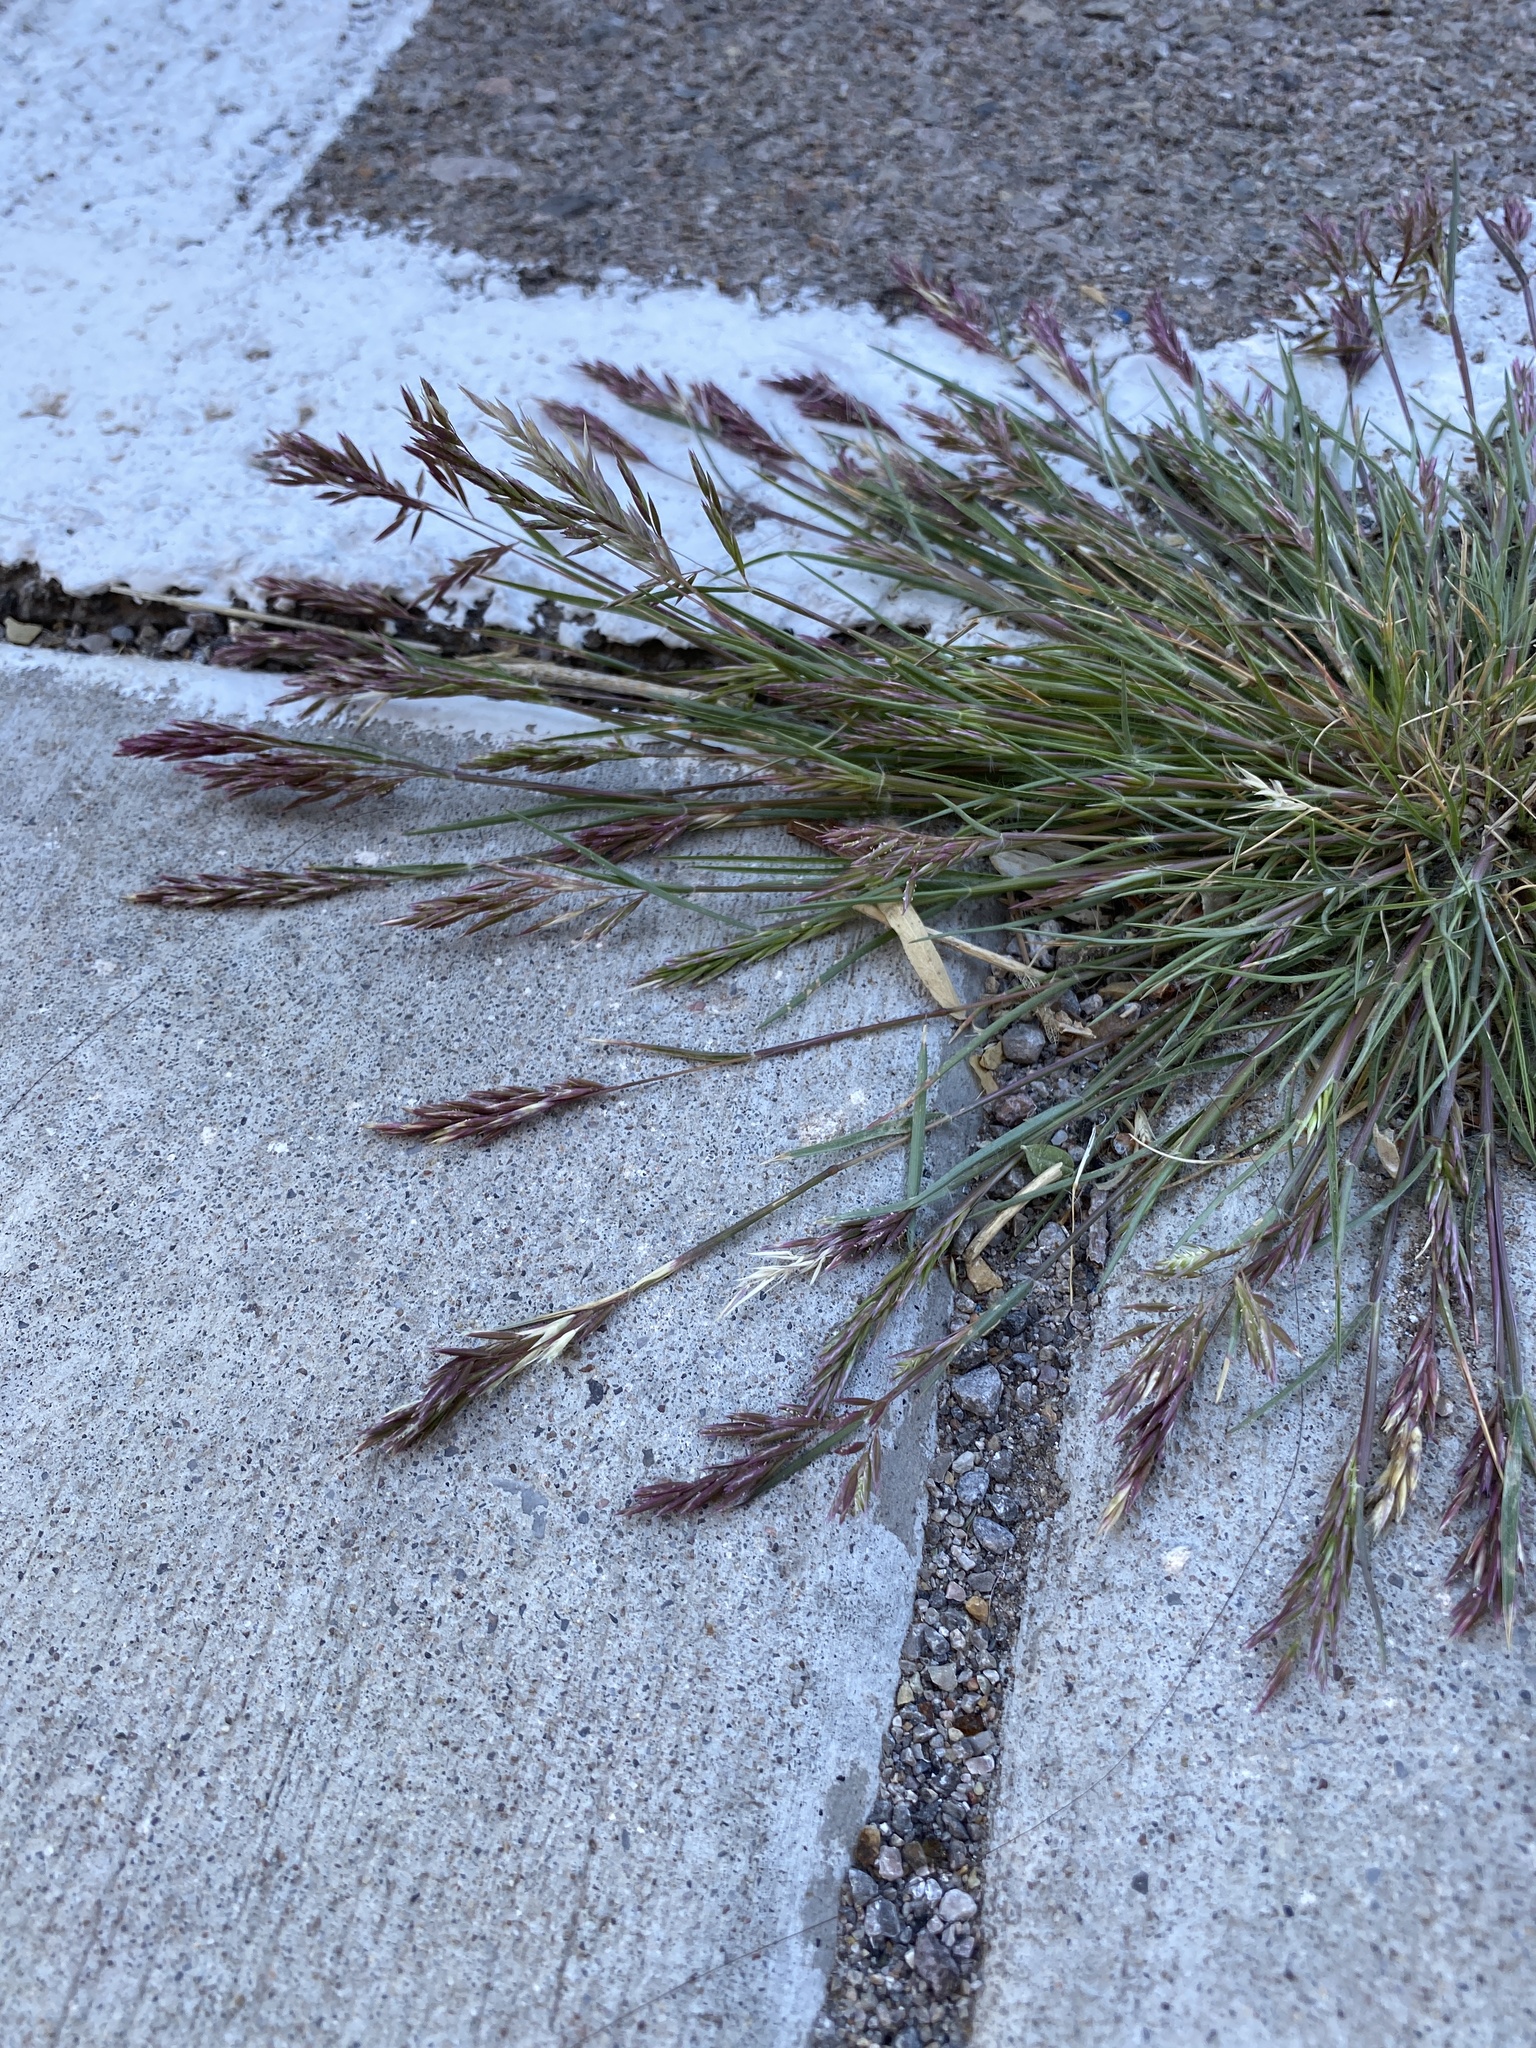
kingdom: Plantae
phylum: Tracheophyta
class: Liliopsida
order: Poales
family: Poaceae
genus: Schismus
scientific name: Schismus barbatus
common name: Kelch-grass
